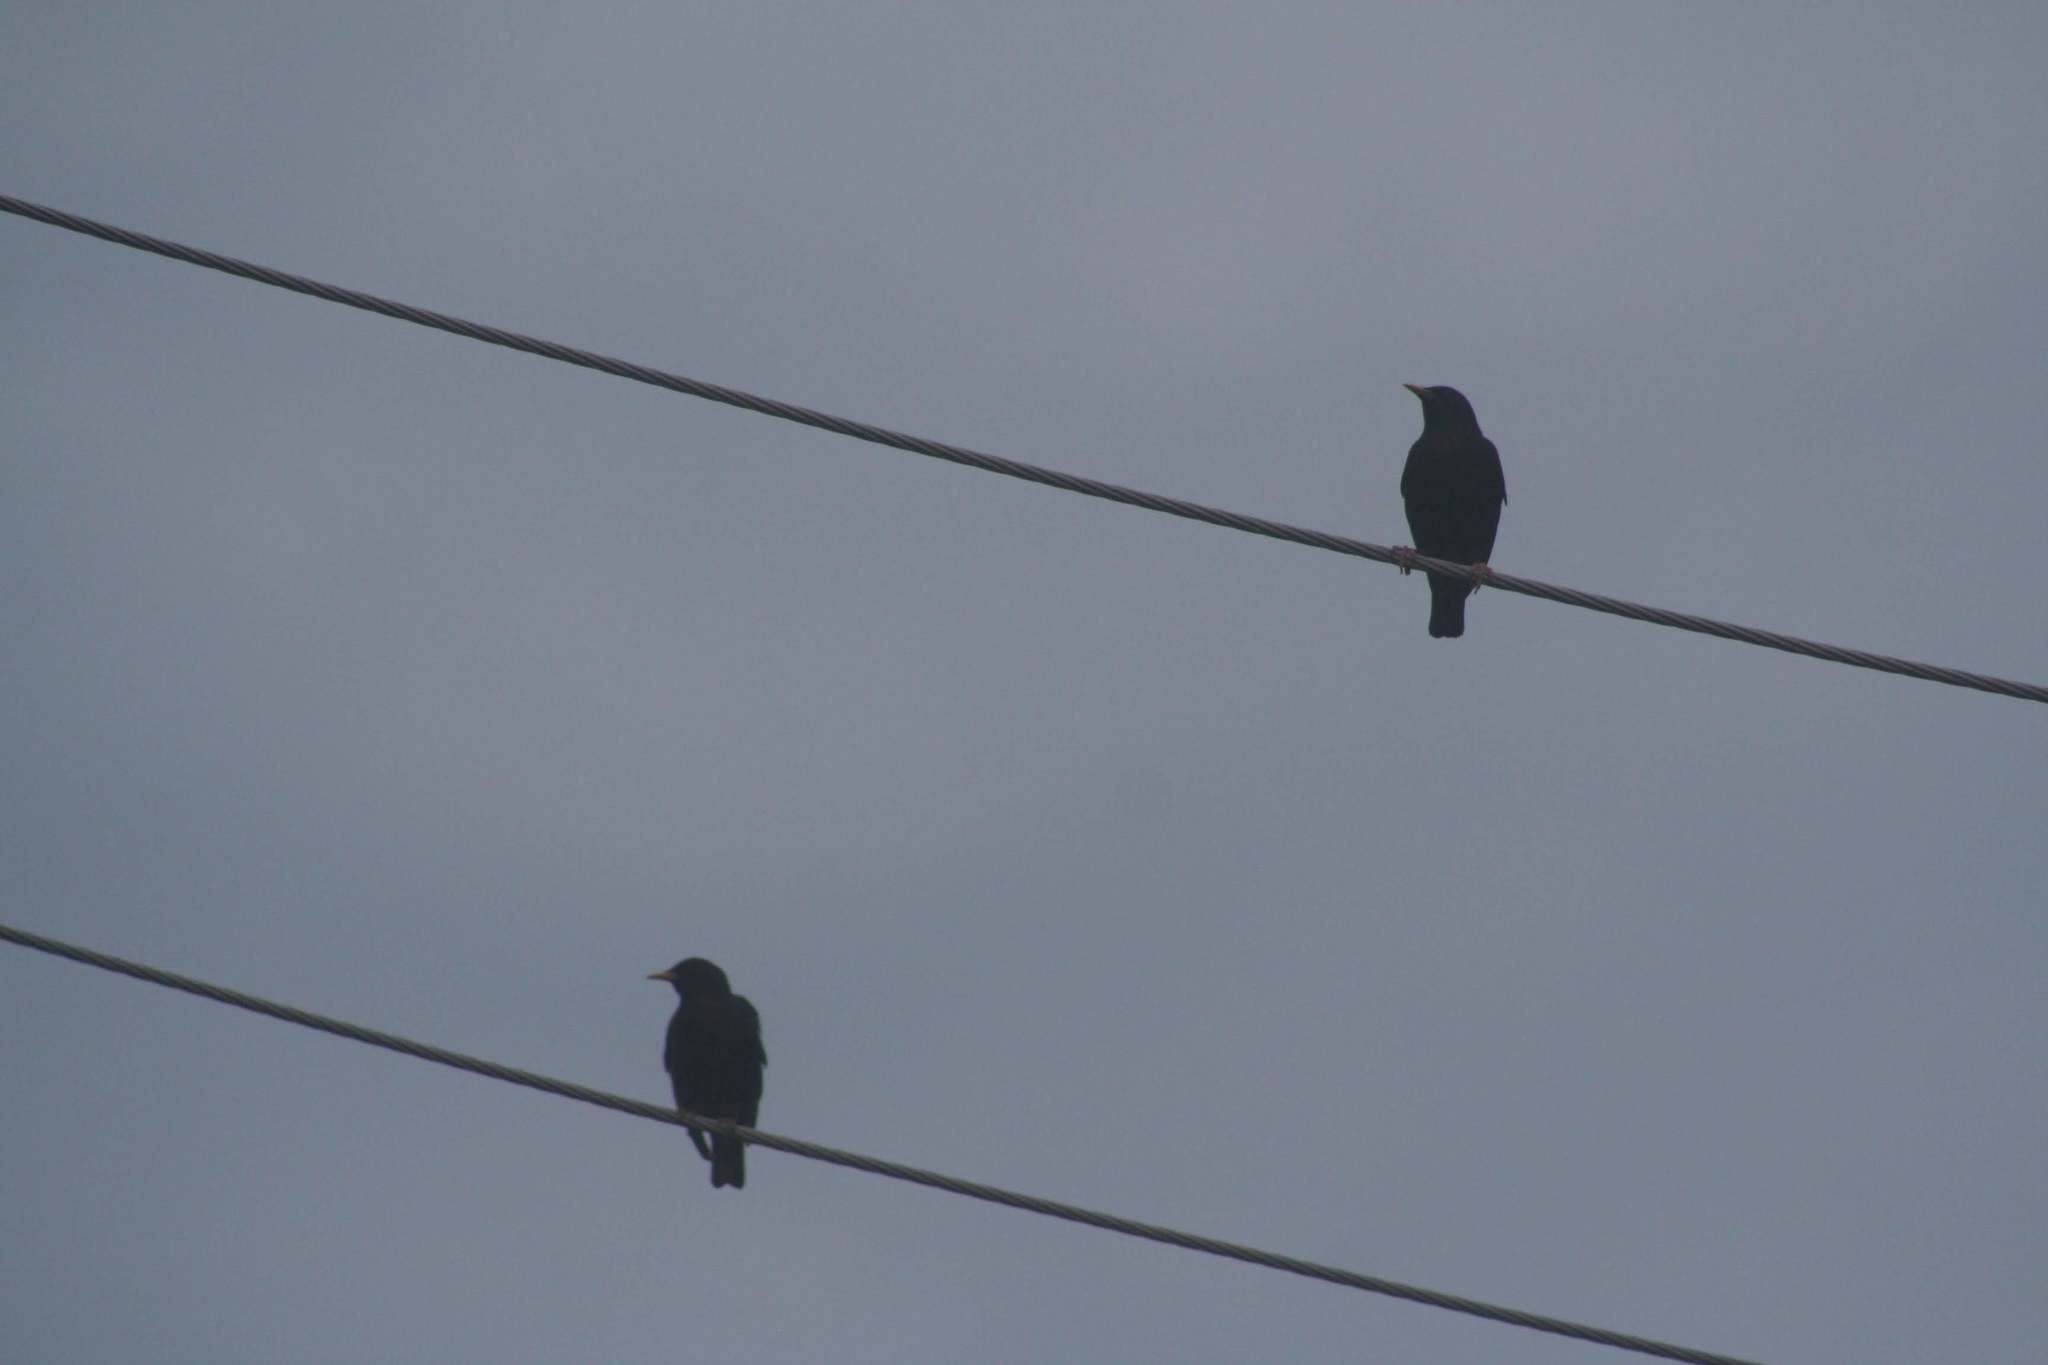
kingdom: Animalia
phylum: Chordata
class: Aves
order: Passeriformes
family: Sturnidae
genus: Sturnus
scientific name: Sturnus vulgaris
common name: Common starling
